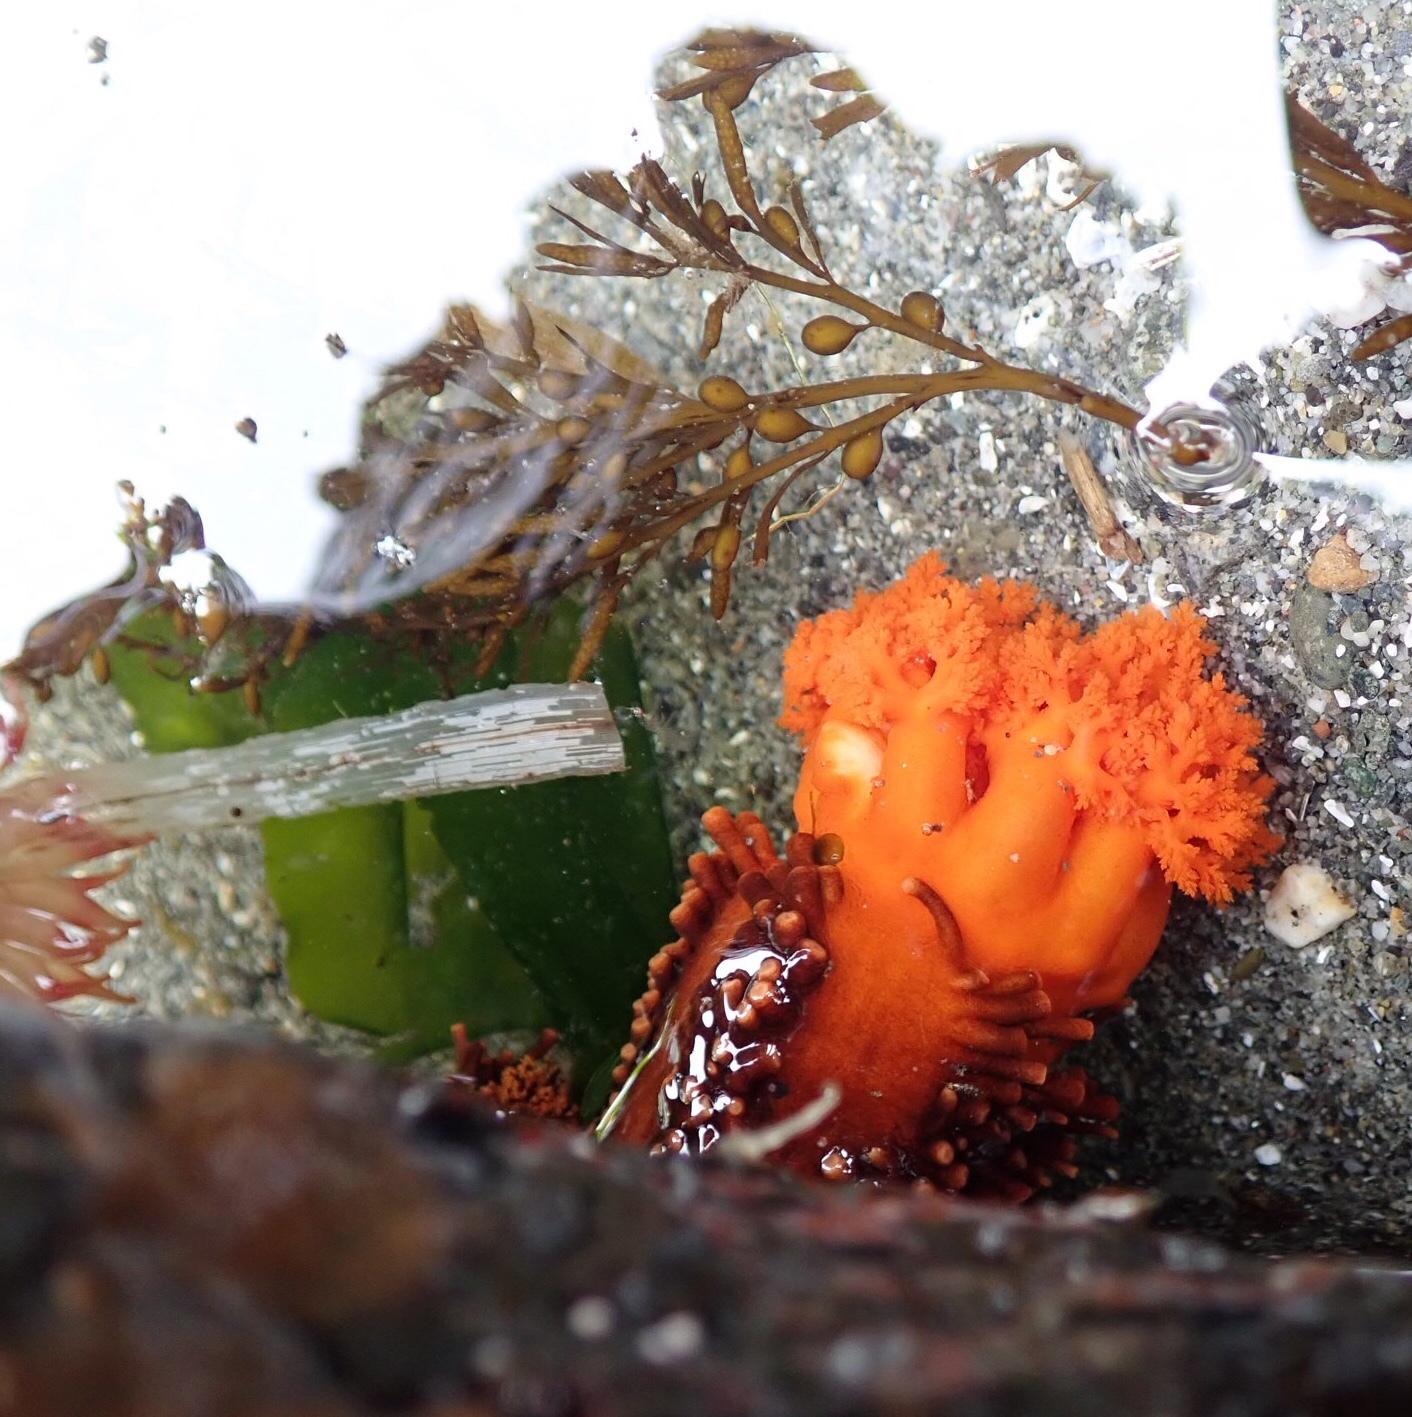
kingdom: Animalia
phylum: Echinodermata
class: Holothuroidea
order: Dendrochirotida
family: Cucumariidae
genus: Cucumaria
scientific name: Cucumaria miniata
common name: Orange sea cucumber
